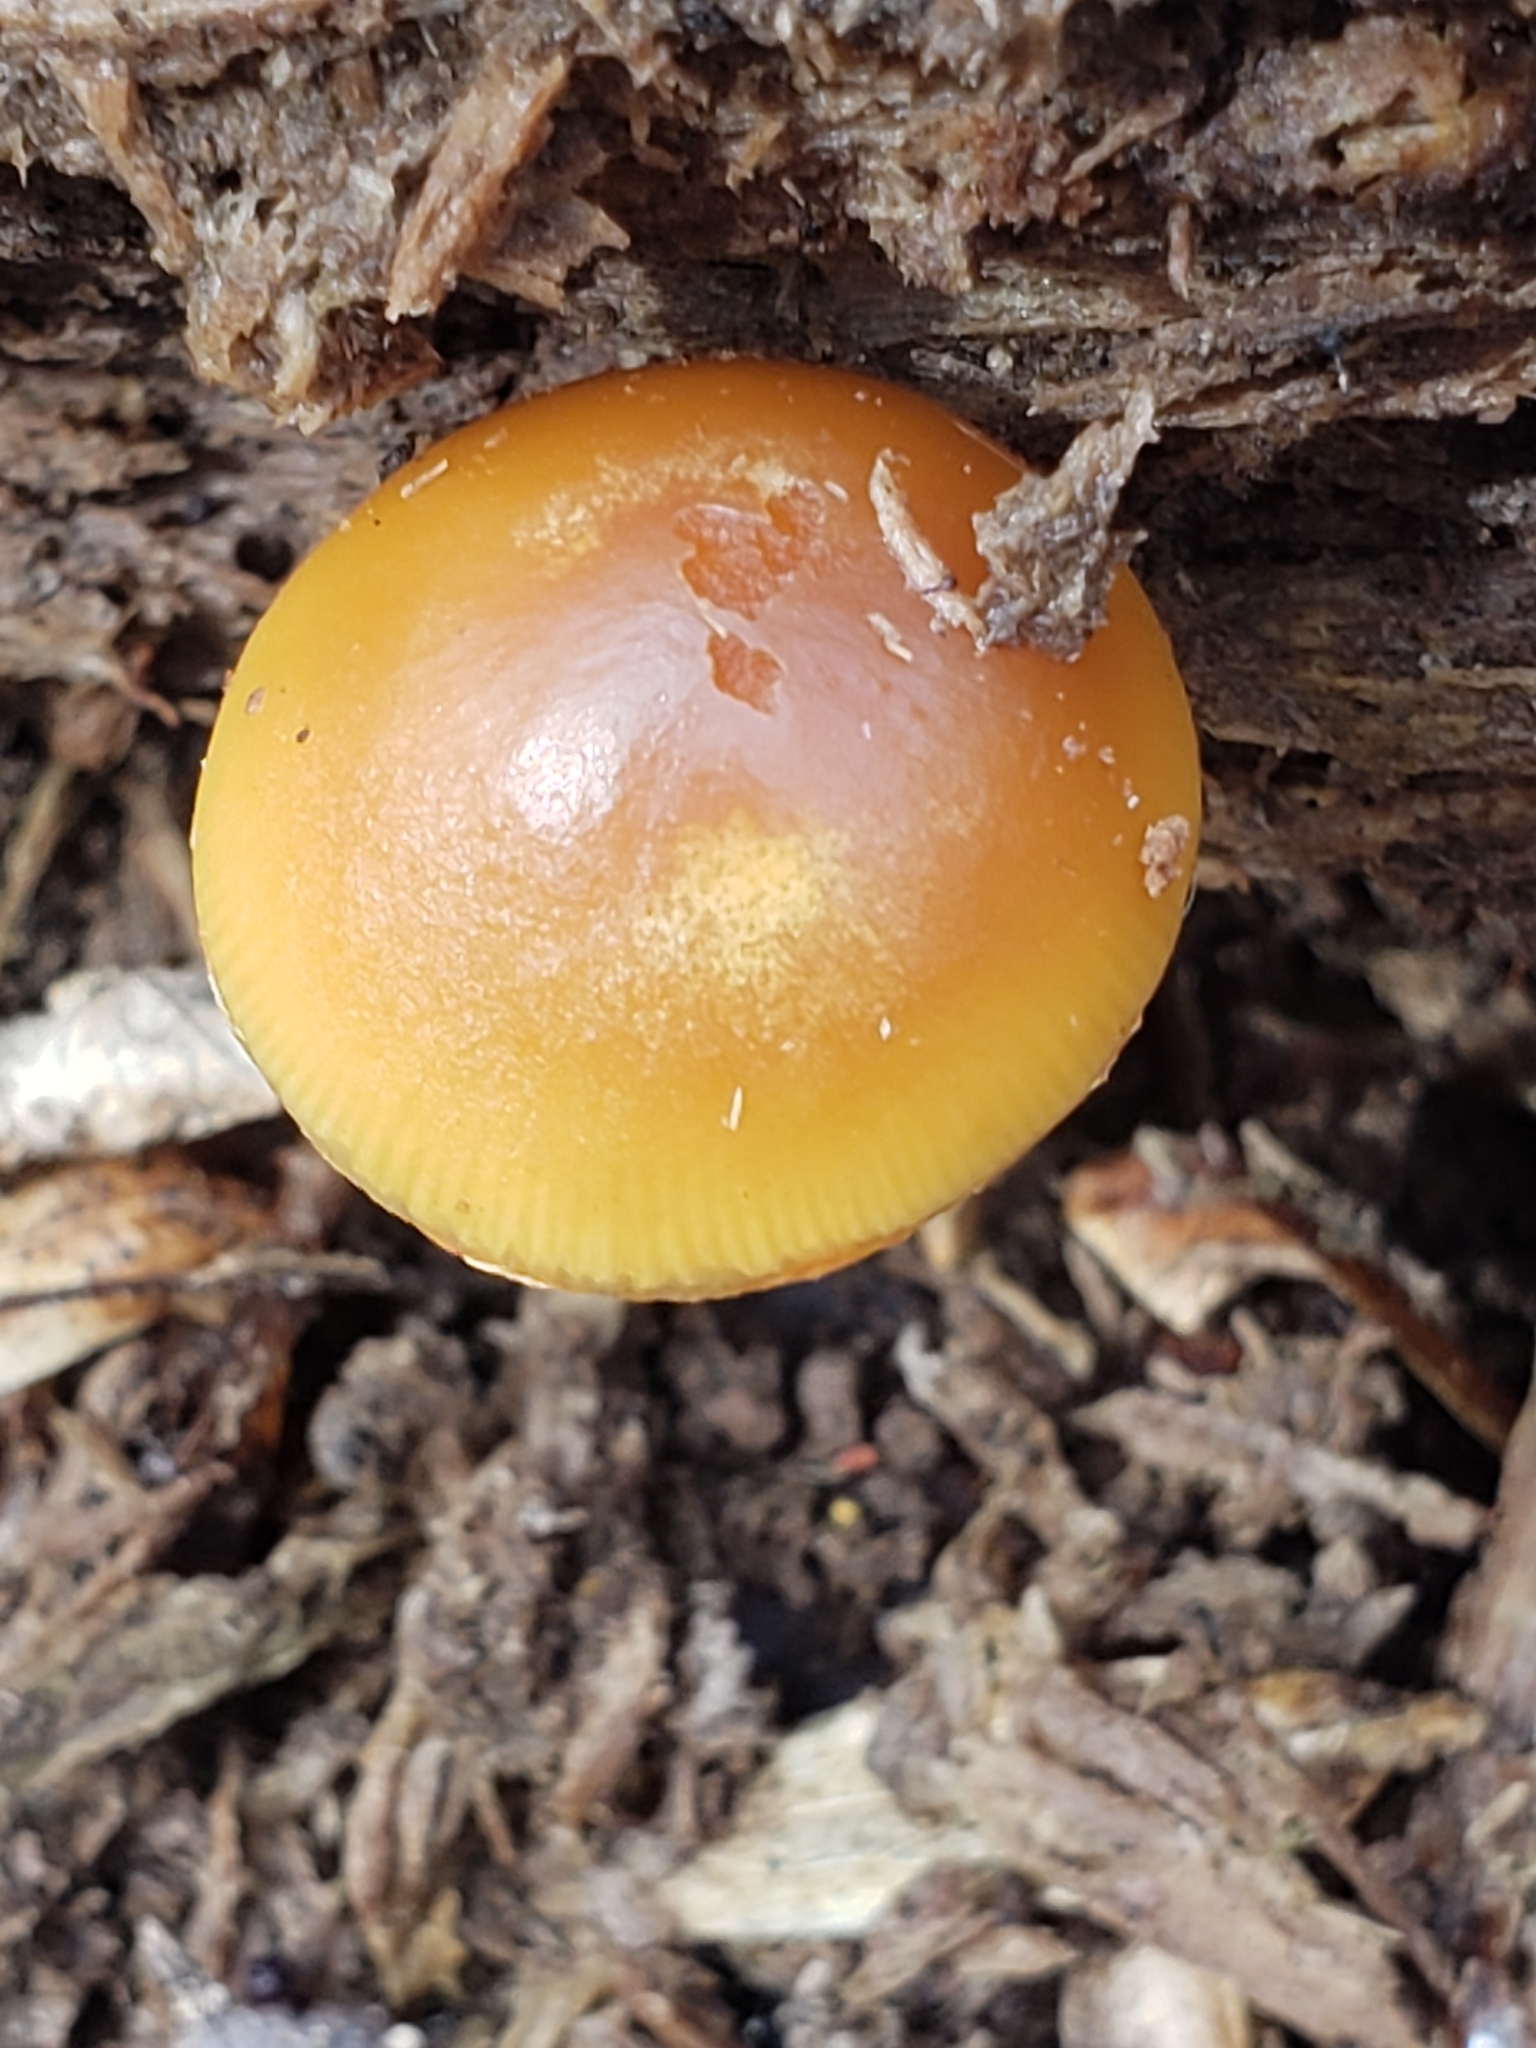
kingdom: Fungi
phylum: Basidiomycota
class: Agaricomycetes
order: Agaricales
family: Hymenogastraceae
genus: Galerina
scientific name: Galerina marginata
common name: Funeral bell
